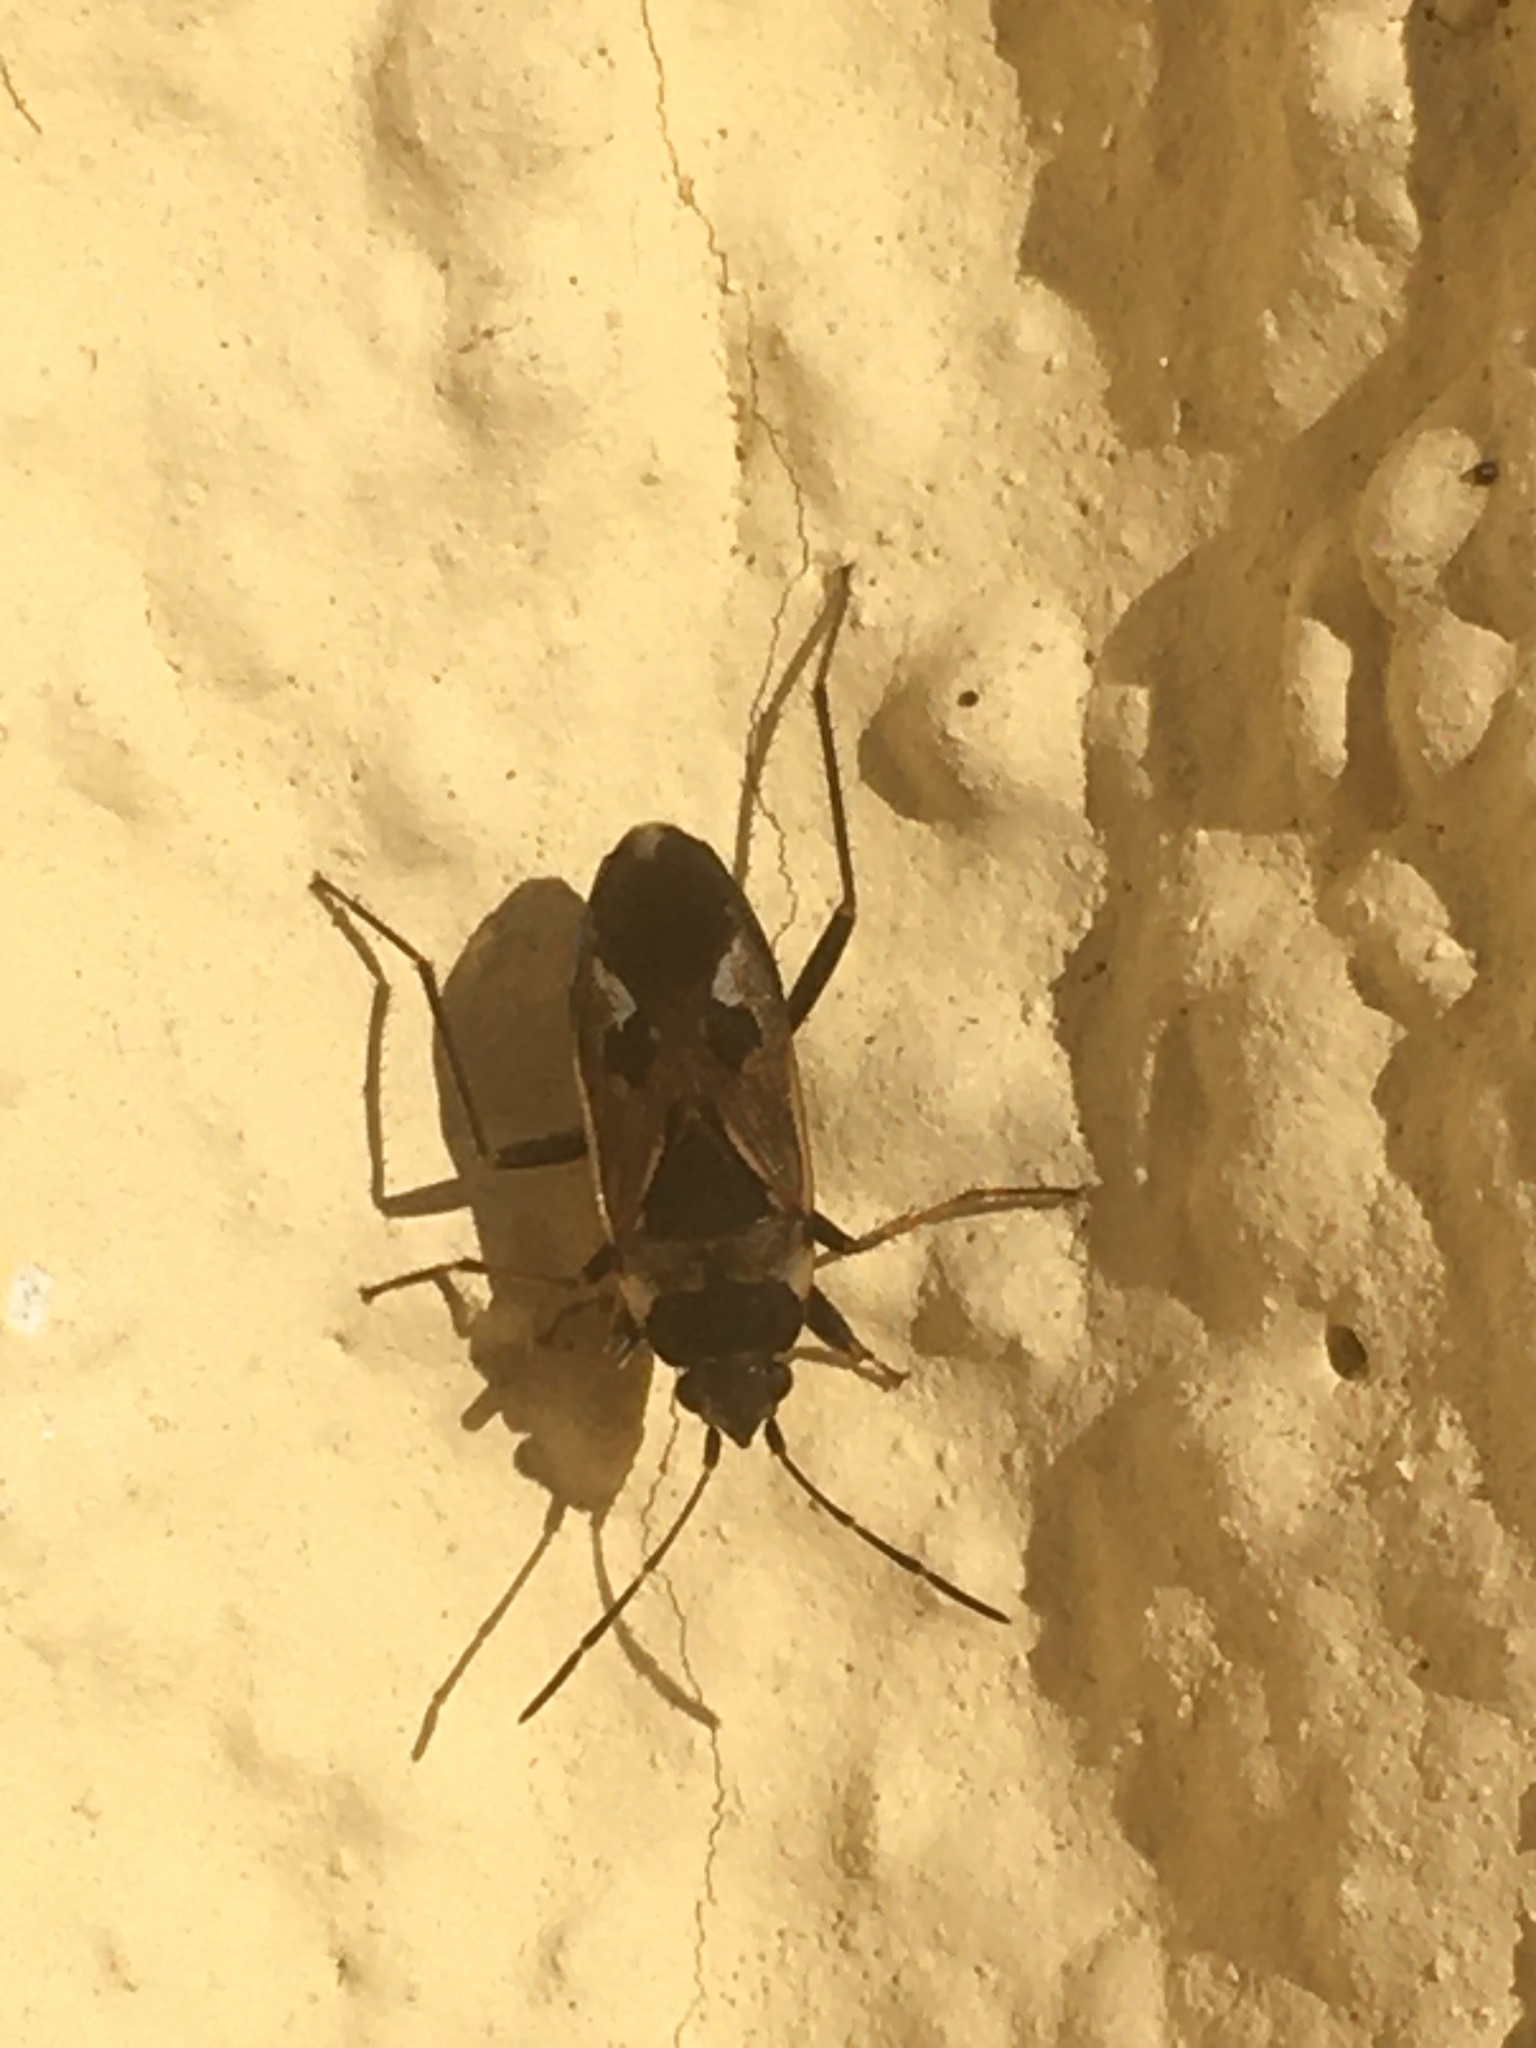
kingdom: Animalia
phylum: Arthropoda
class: Insecta
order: Hemiptera
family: Rhyparochromidae
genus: Rhyparochromus
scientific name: Rhyparochromus vulgaris
